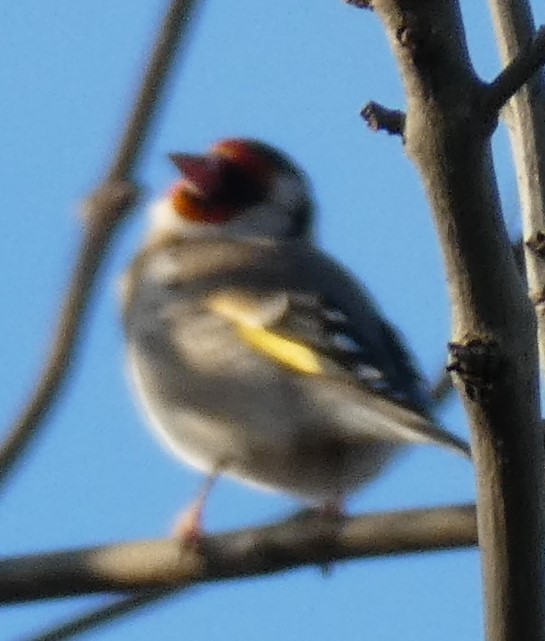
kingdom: Animalia
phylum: Chordata
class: Aves
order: Passeriformes
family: Fringillidae
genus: Carduelis
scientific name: Carduelis carduelis
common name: European goldfinch
